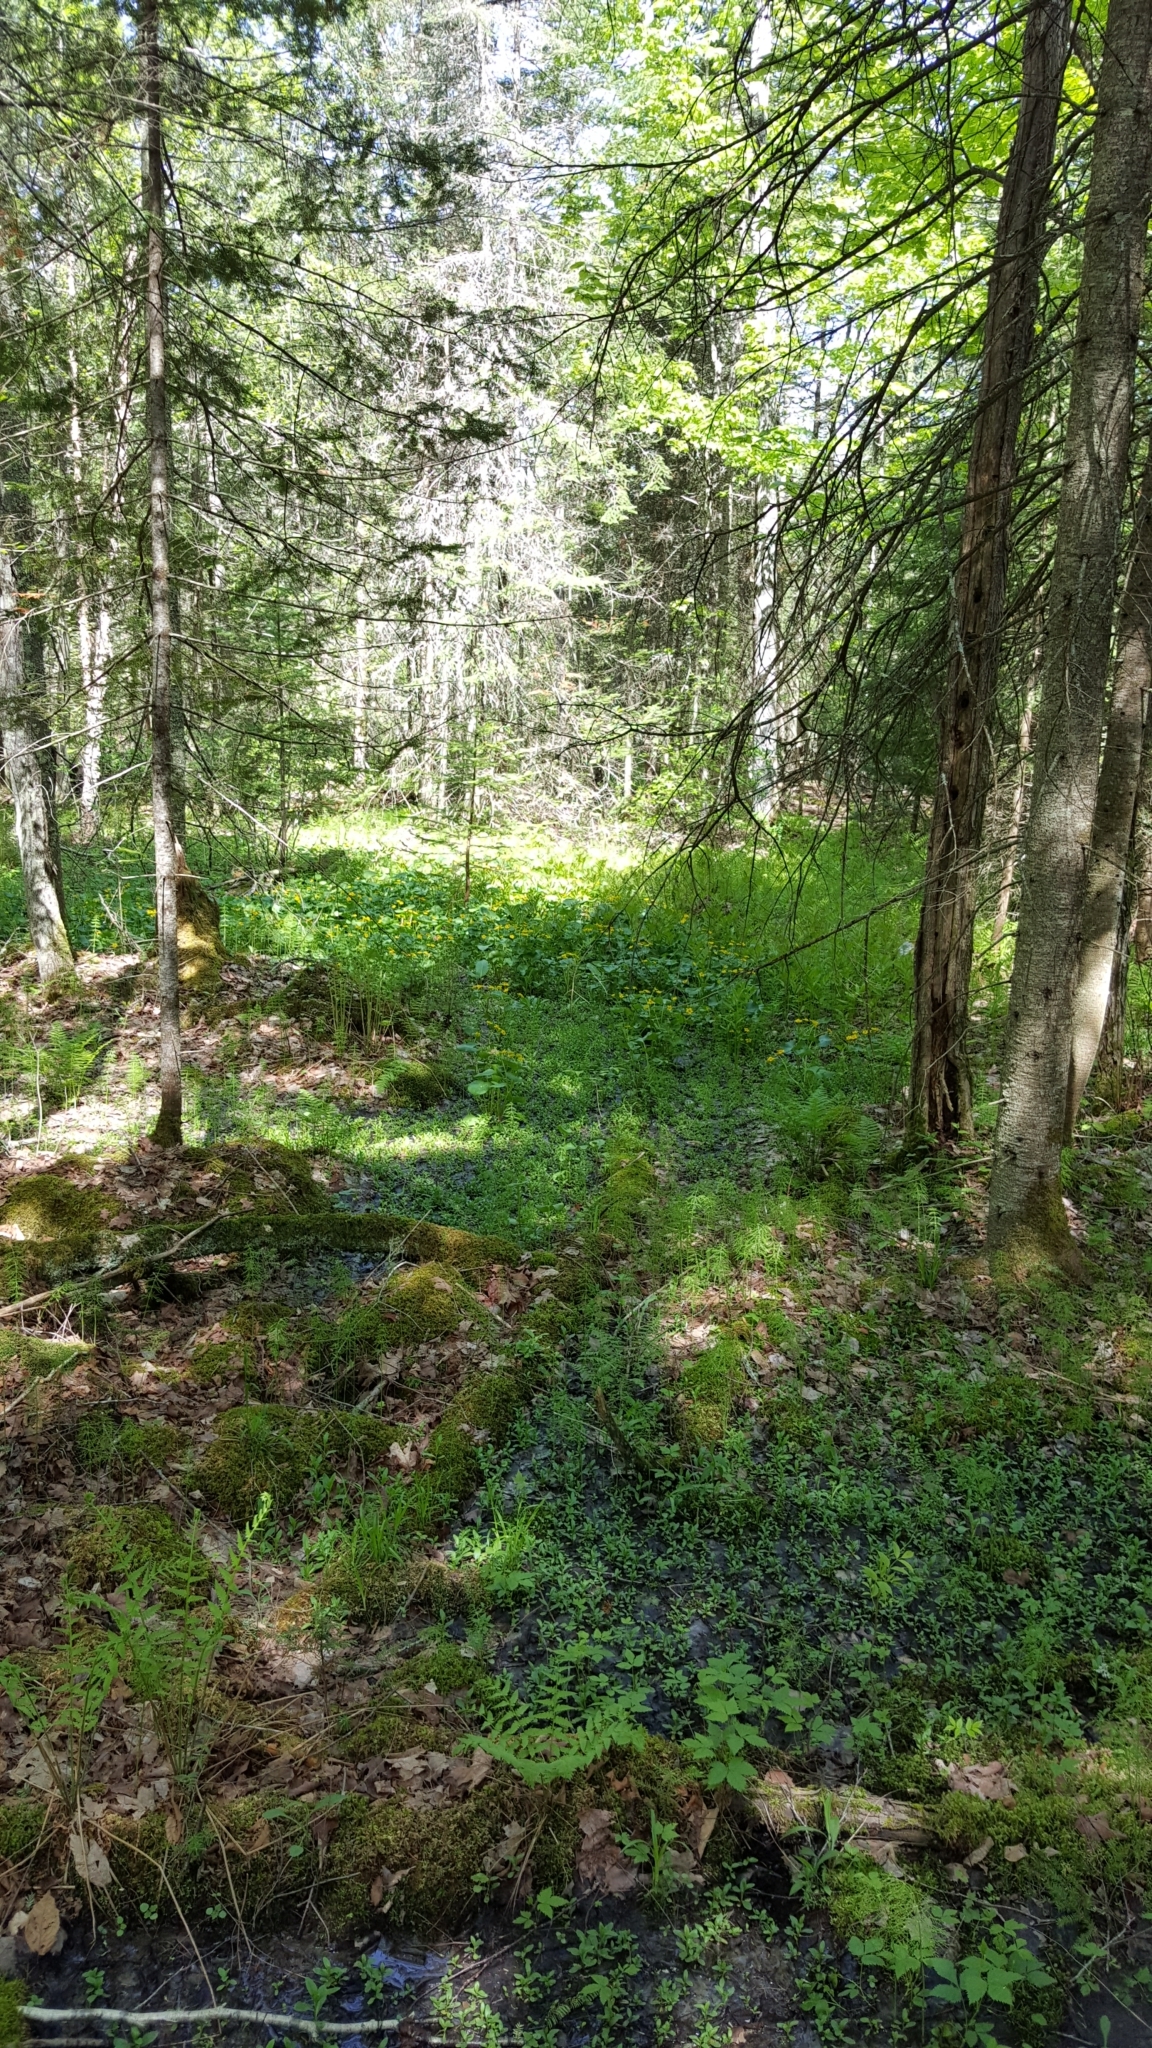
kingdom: Plantae
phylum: Tracheophyta
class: Magnoliopsida
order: Ranunculales
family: Ranunculaceae
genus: Caltha
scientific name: Caltha palustris
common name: Marsh marigold
